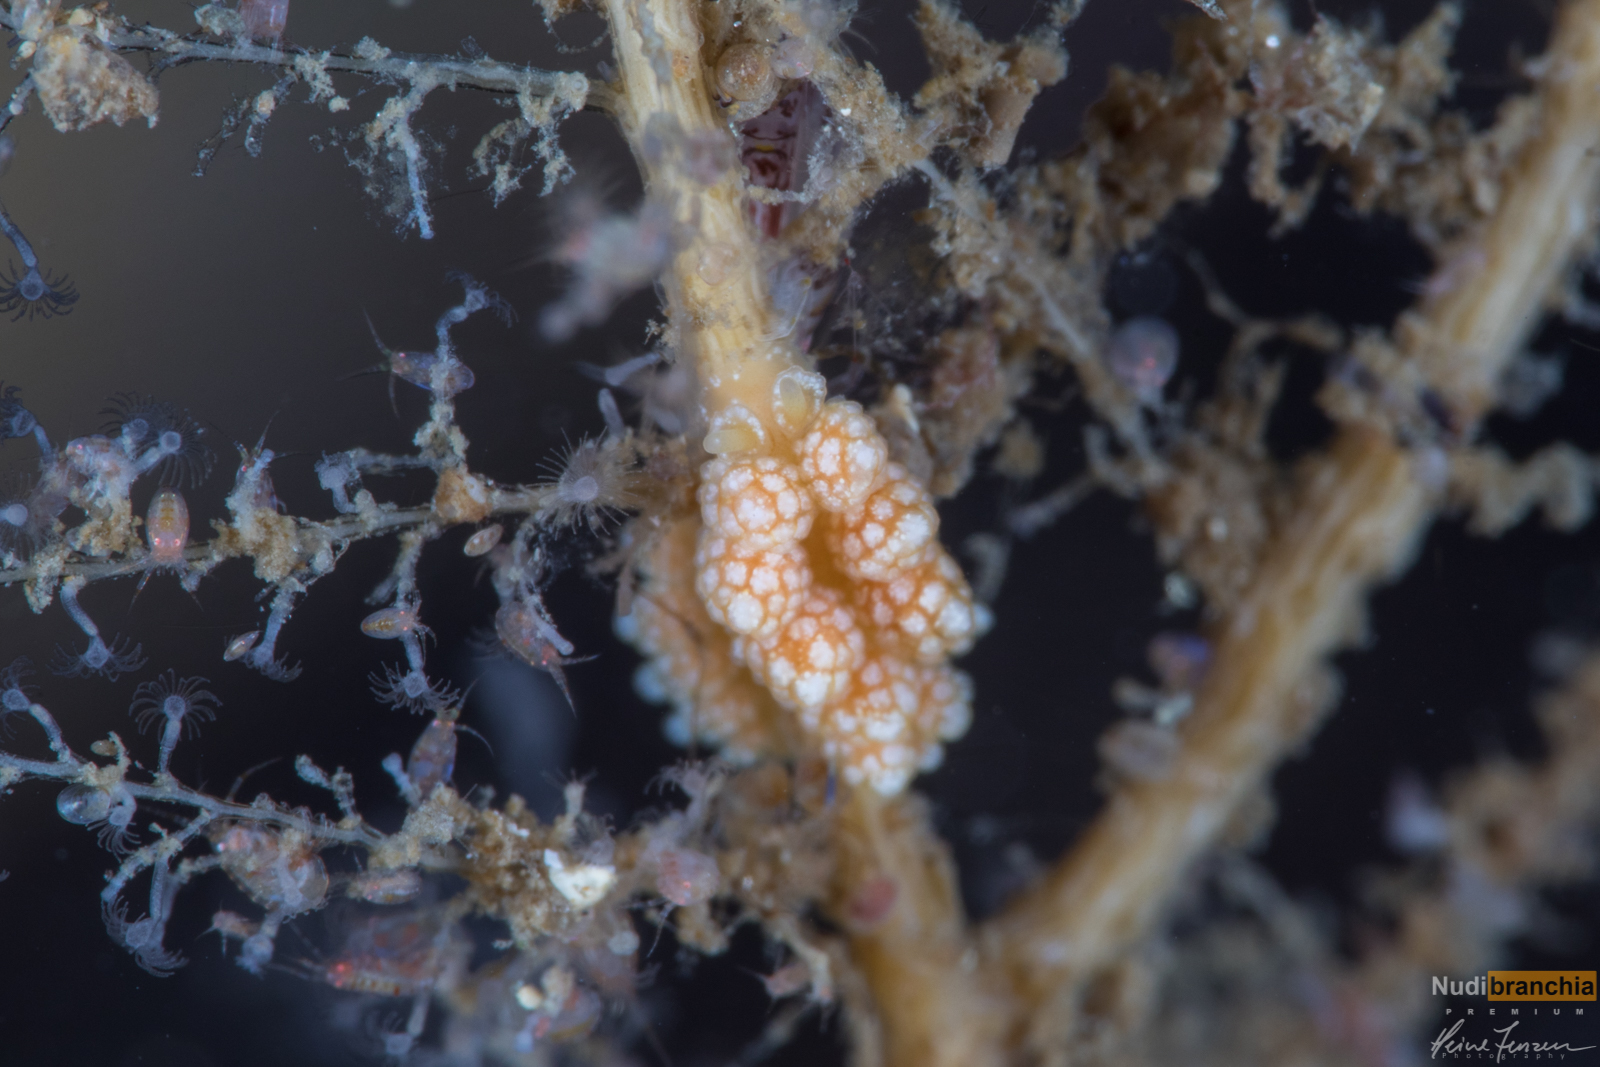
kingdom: Animalia
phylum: Mollusca
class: Gastropoda
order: Nudibranchia
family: Dotidae
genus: Doto
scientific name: Doto fragilis
